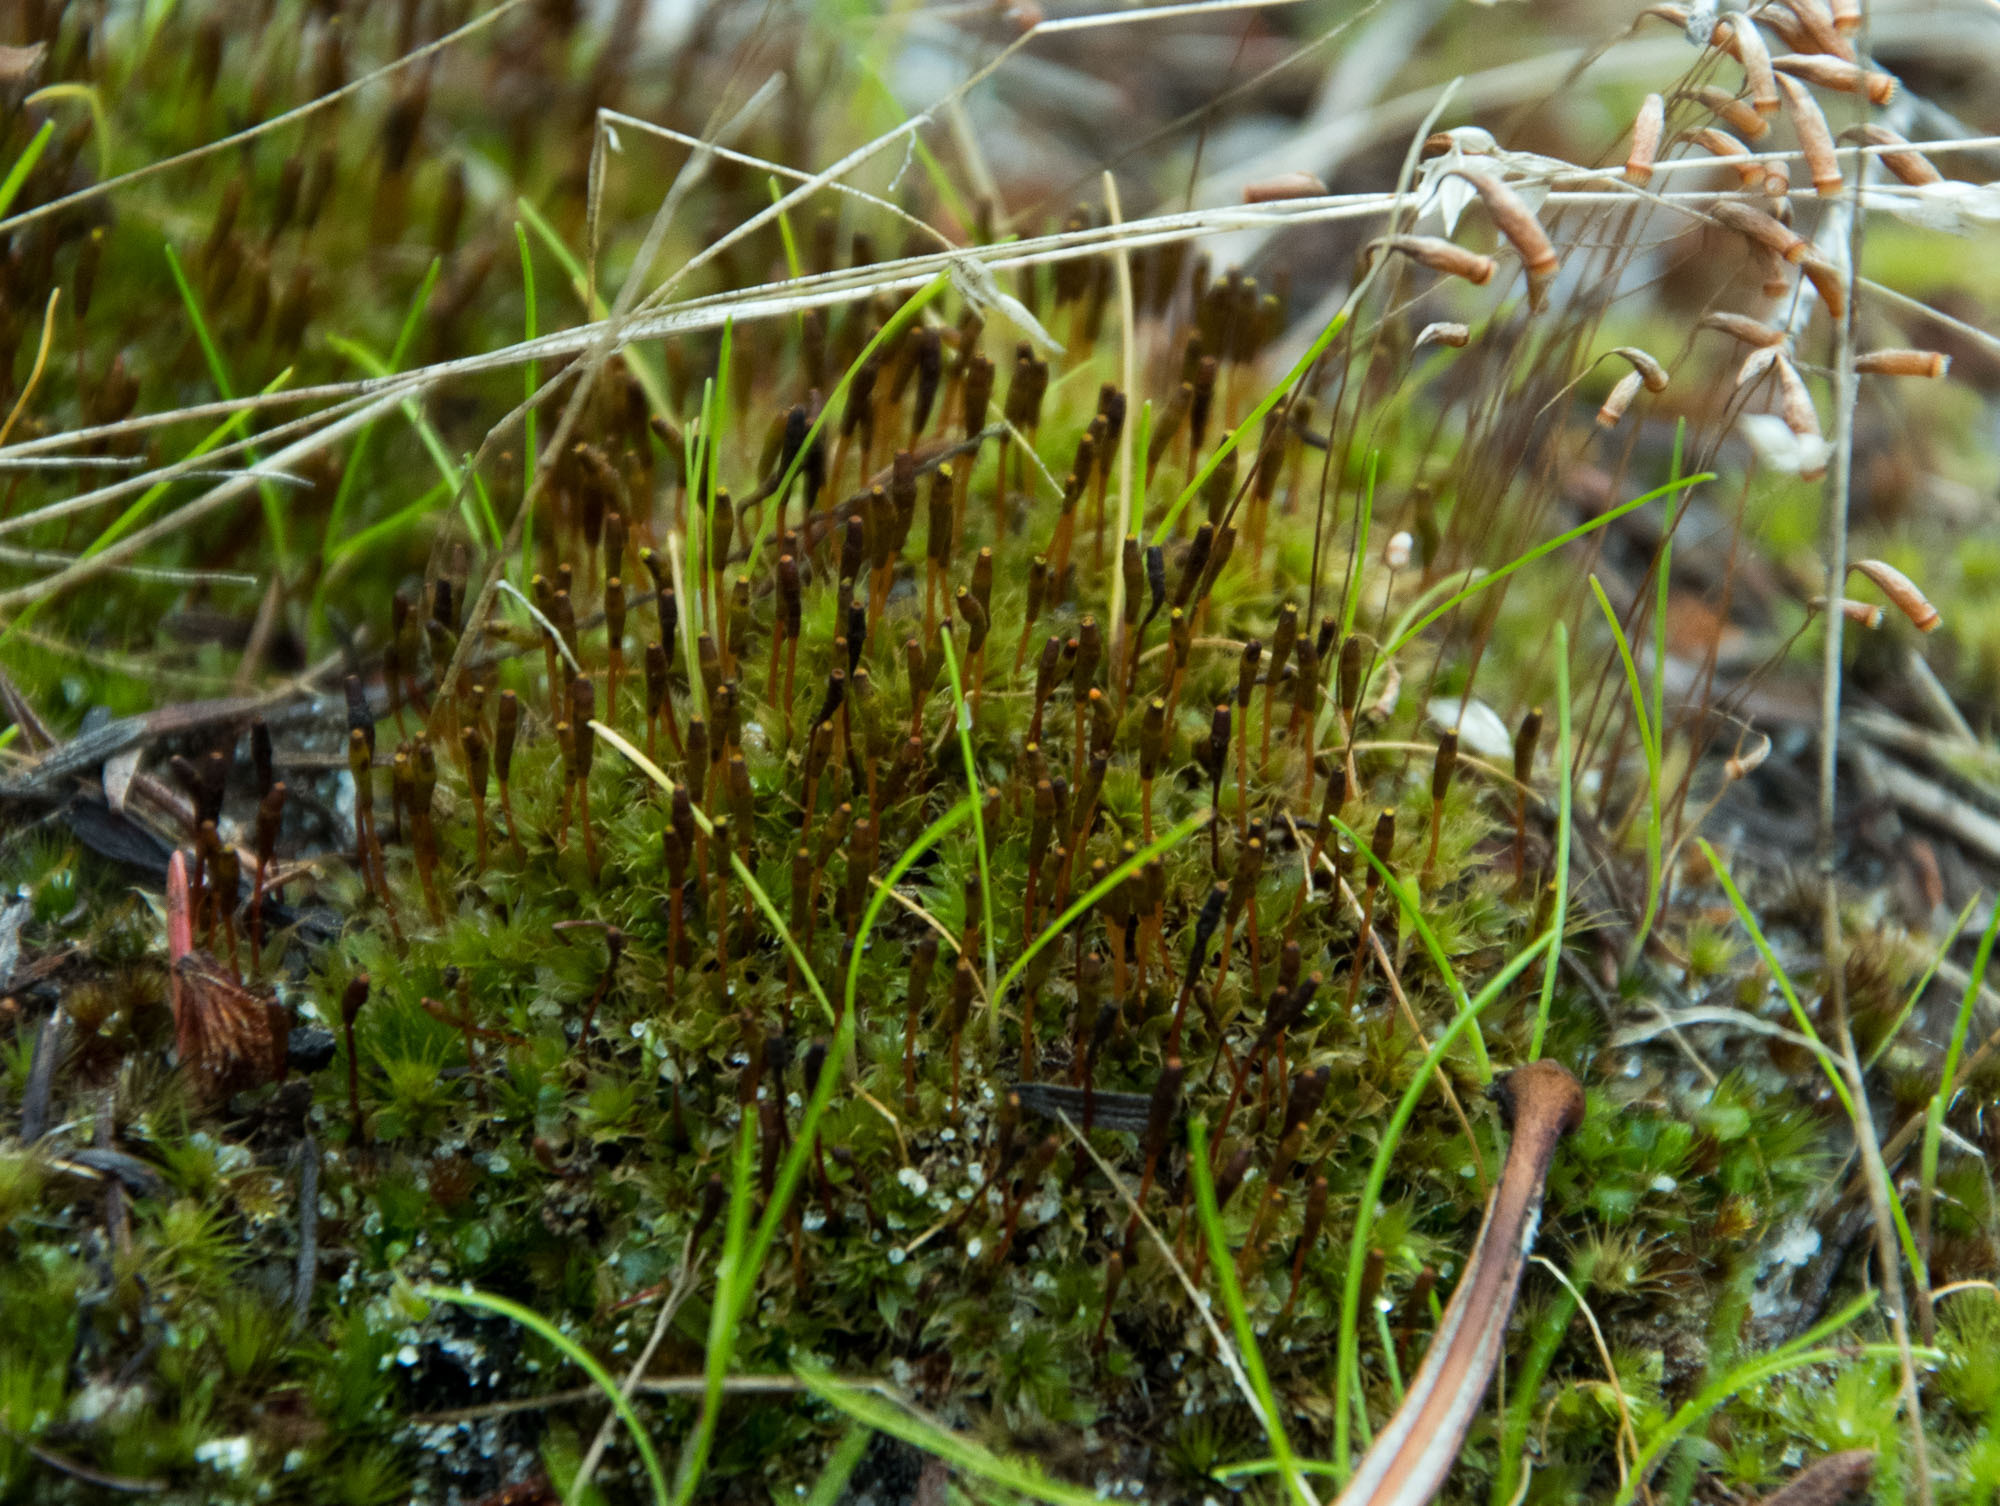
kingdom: Plantae
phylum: Bryophyta
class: Bryopsida
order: Splachnales
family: Splachnaceae
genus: Tayloria
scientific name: Tayloria octoblephara
